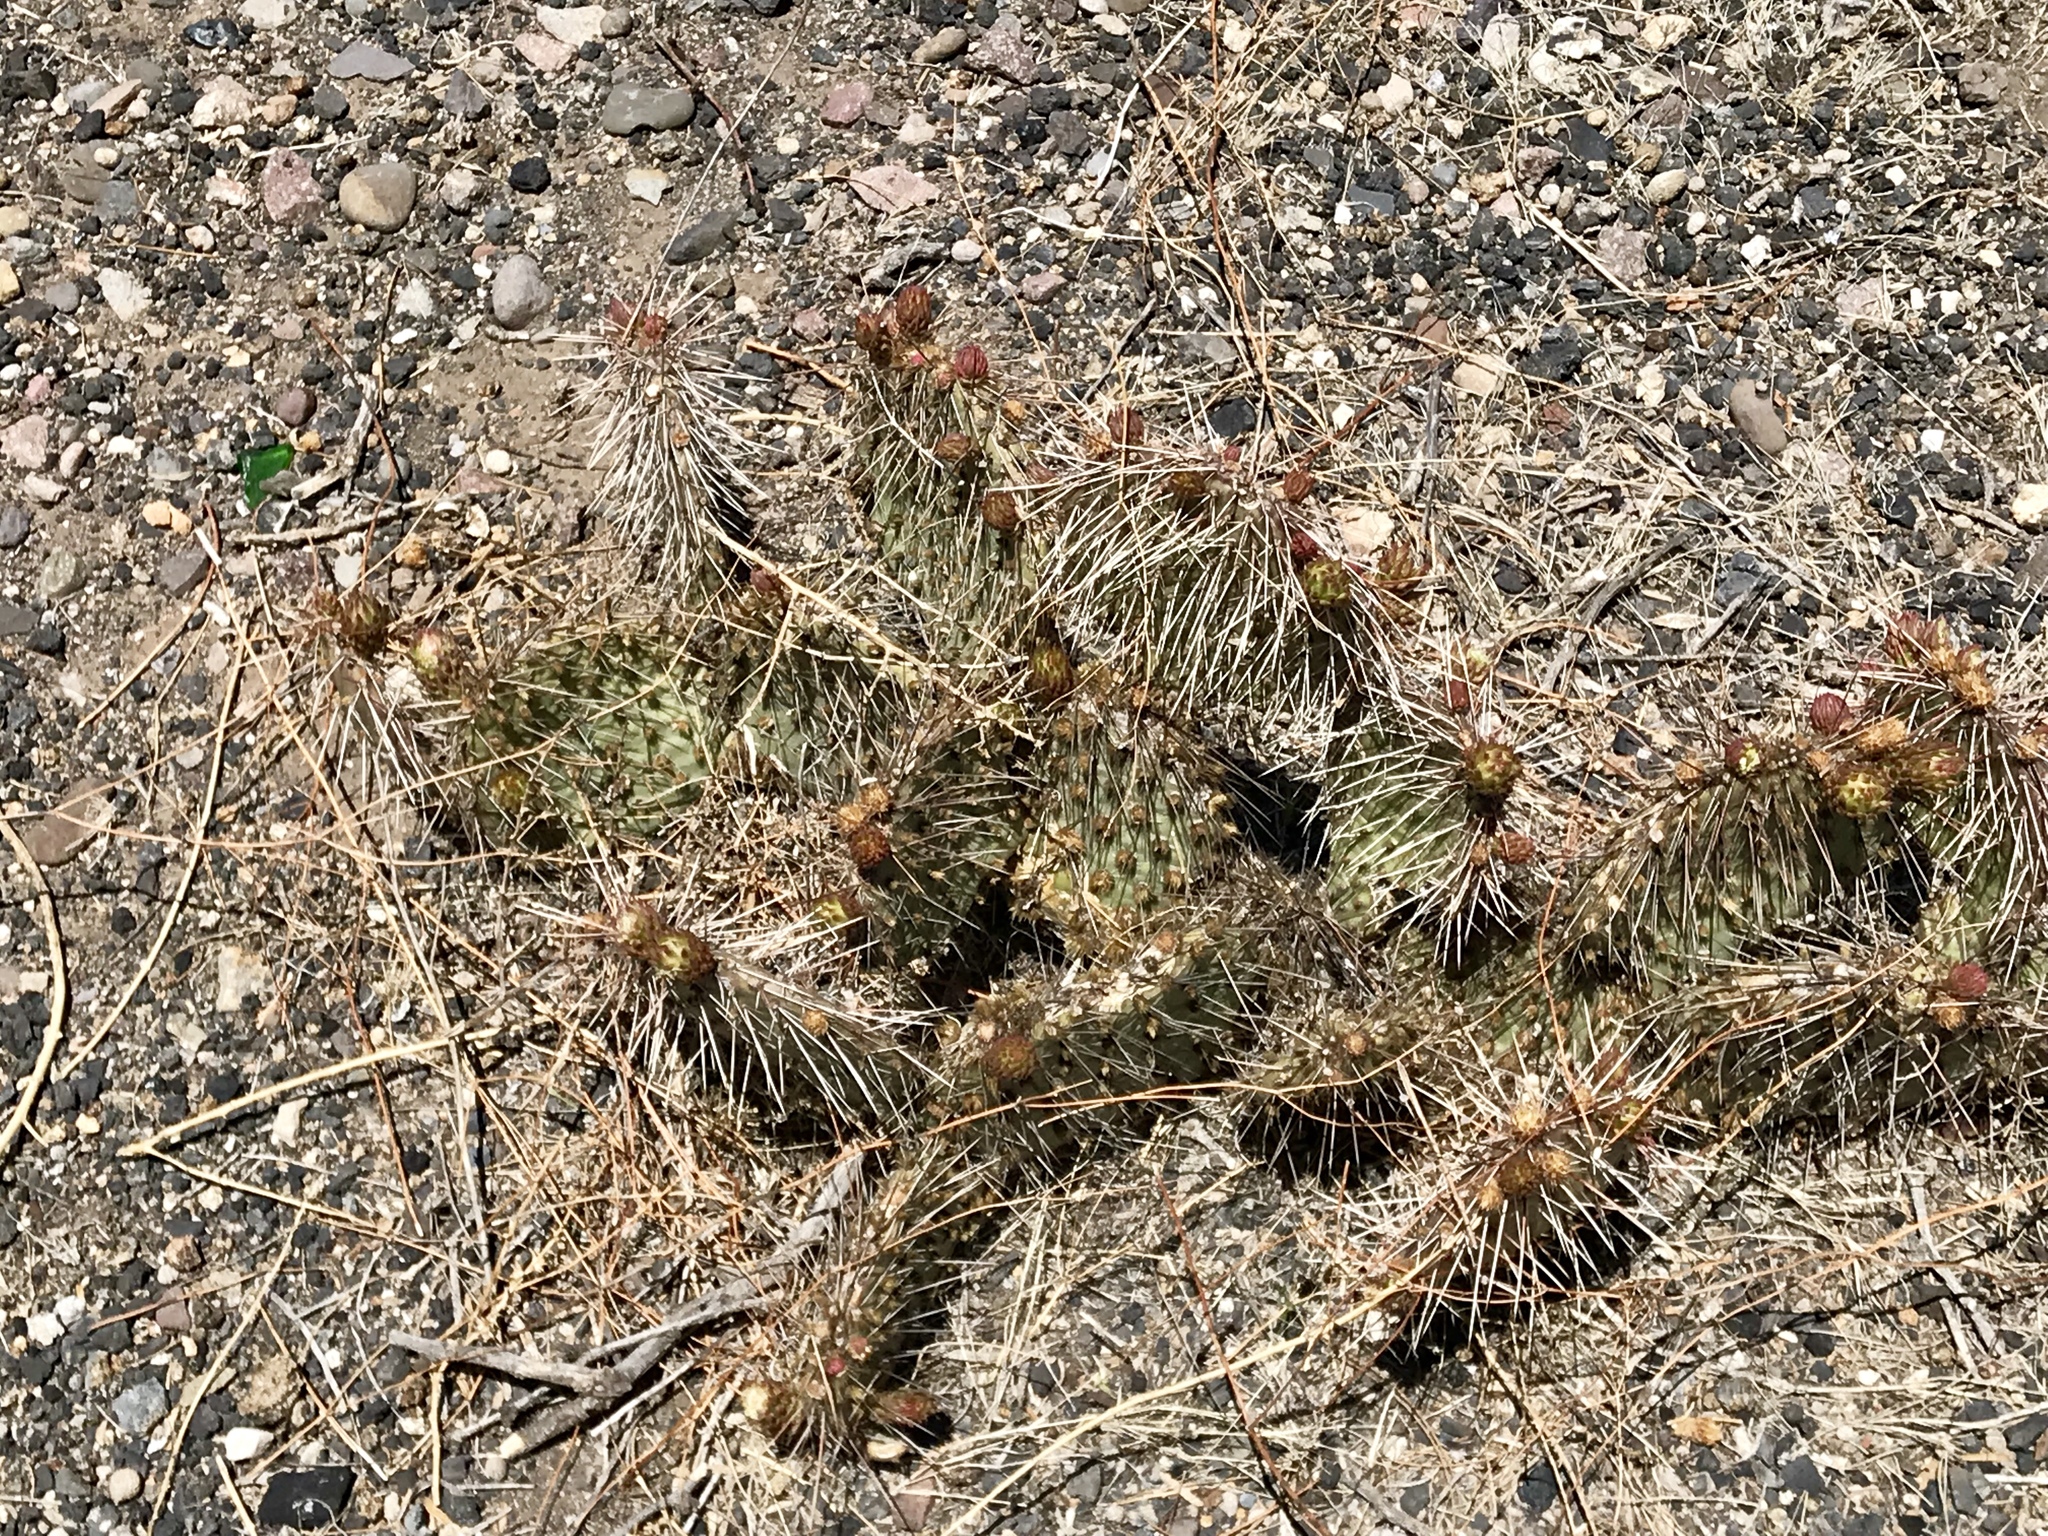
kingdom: Plantae
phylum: Tracheophyta
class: Magnoliopsida
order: Caryophyllales
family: Cactaceae
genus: Opuntia
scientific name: Opuntia cymochila
